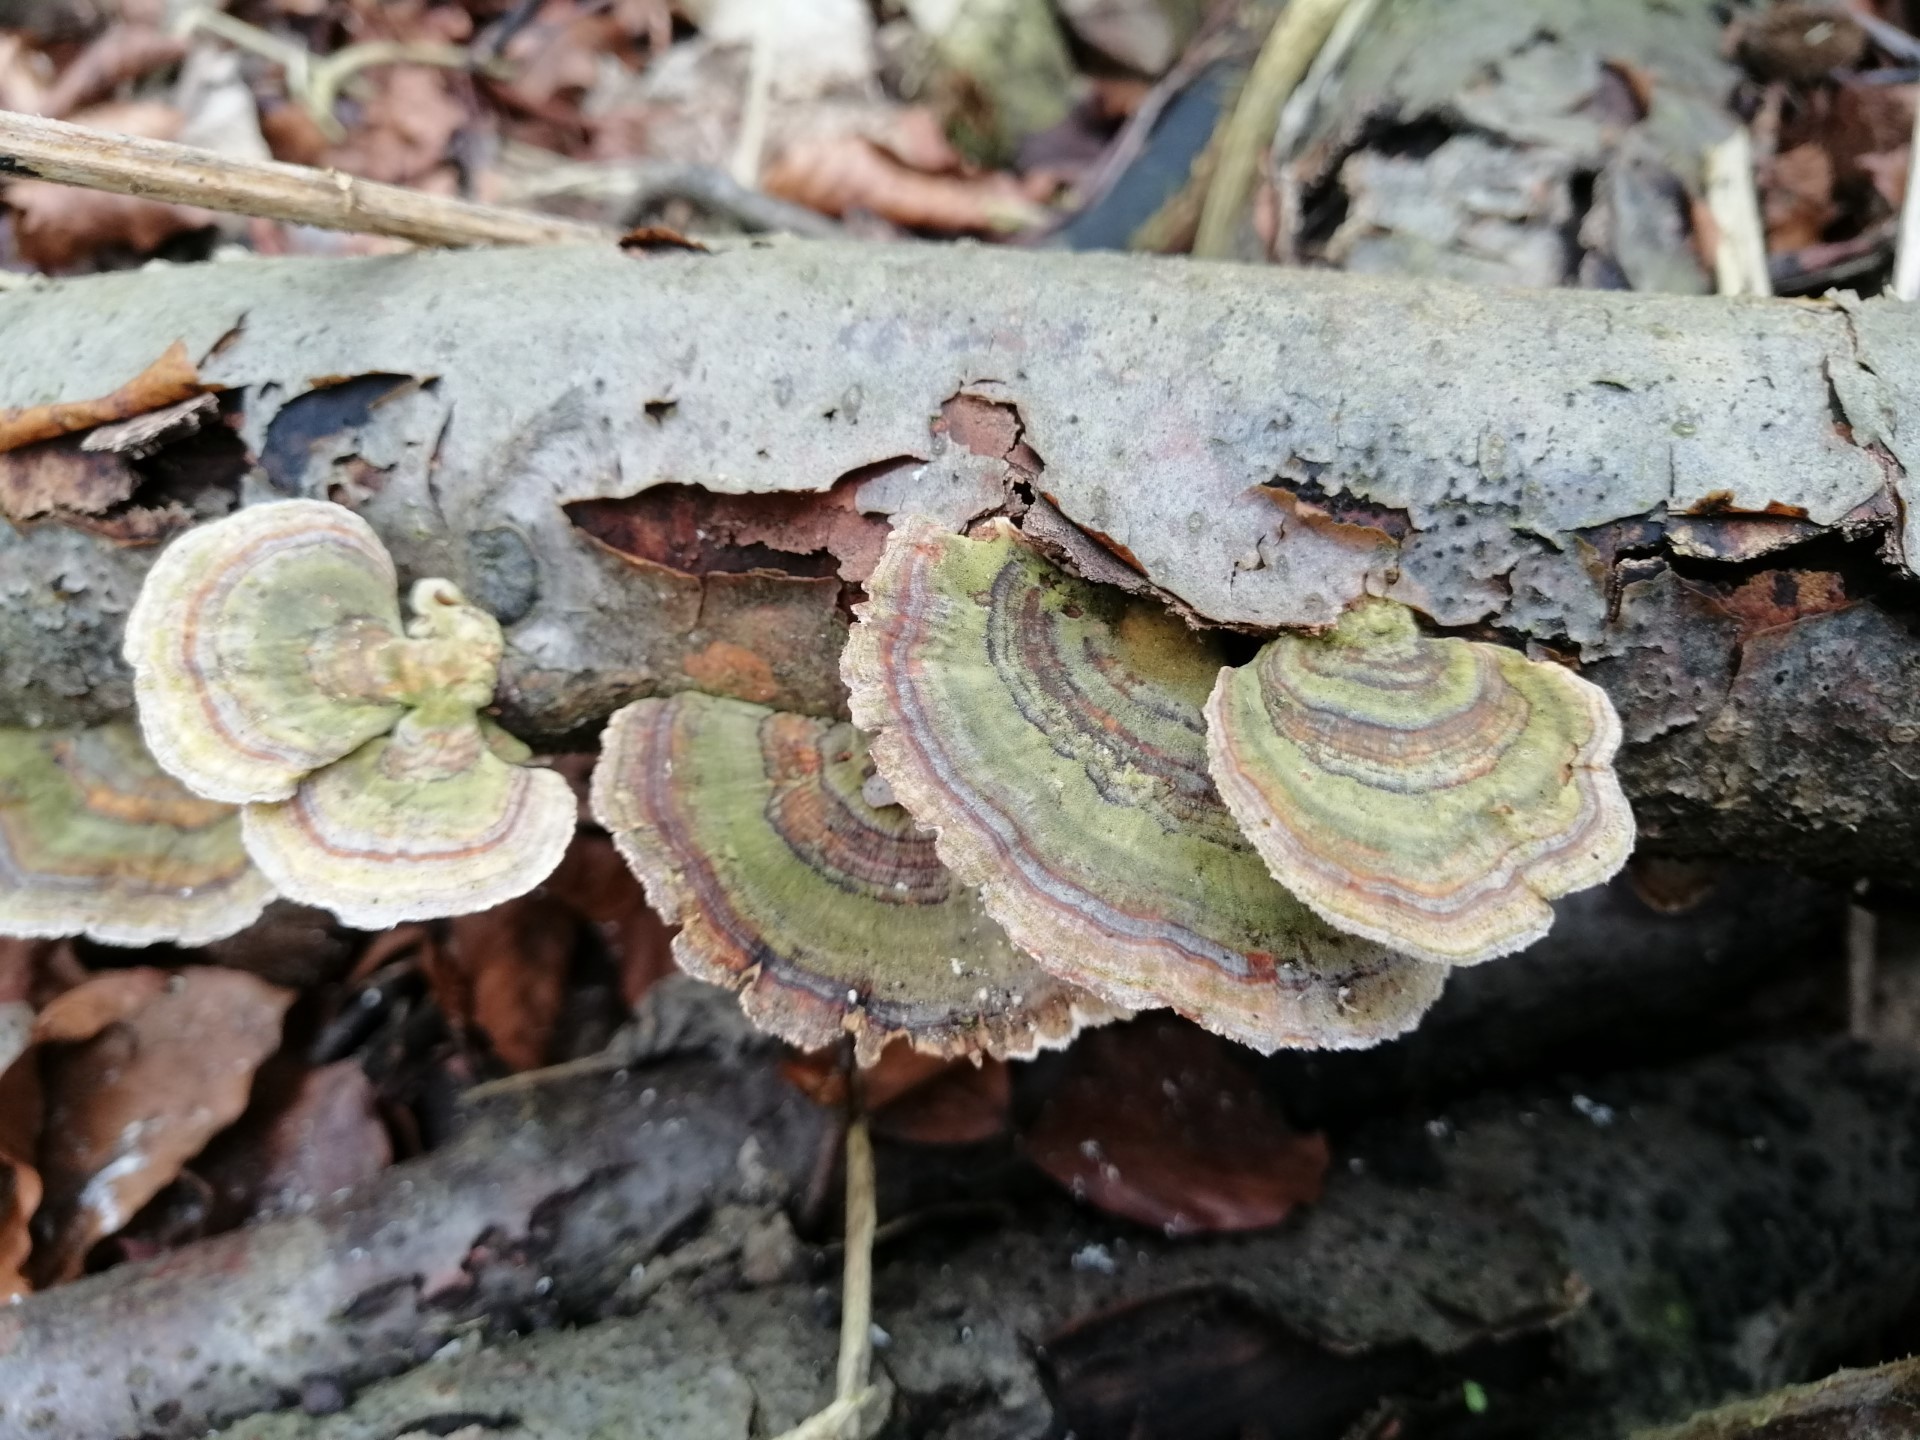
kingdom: Fungi
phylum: Basidiomycota
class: Agaricomycetes
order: Polyporales
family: Polyporaceae
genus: Trametes
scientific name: Trametes versicolor
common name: Turkeytail
